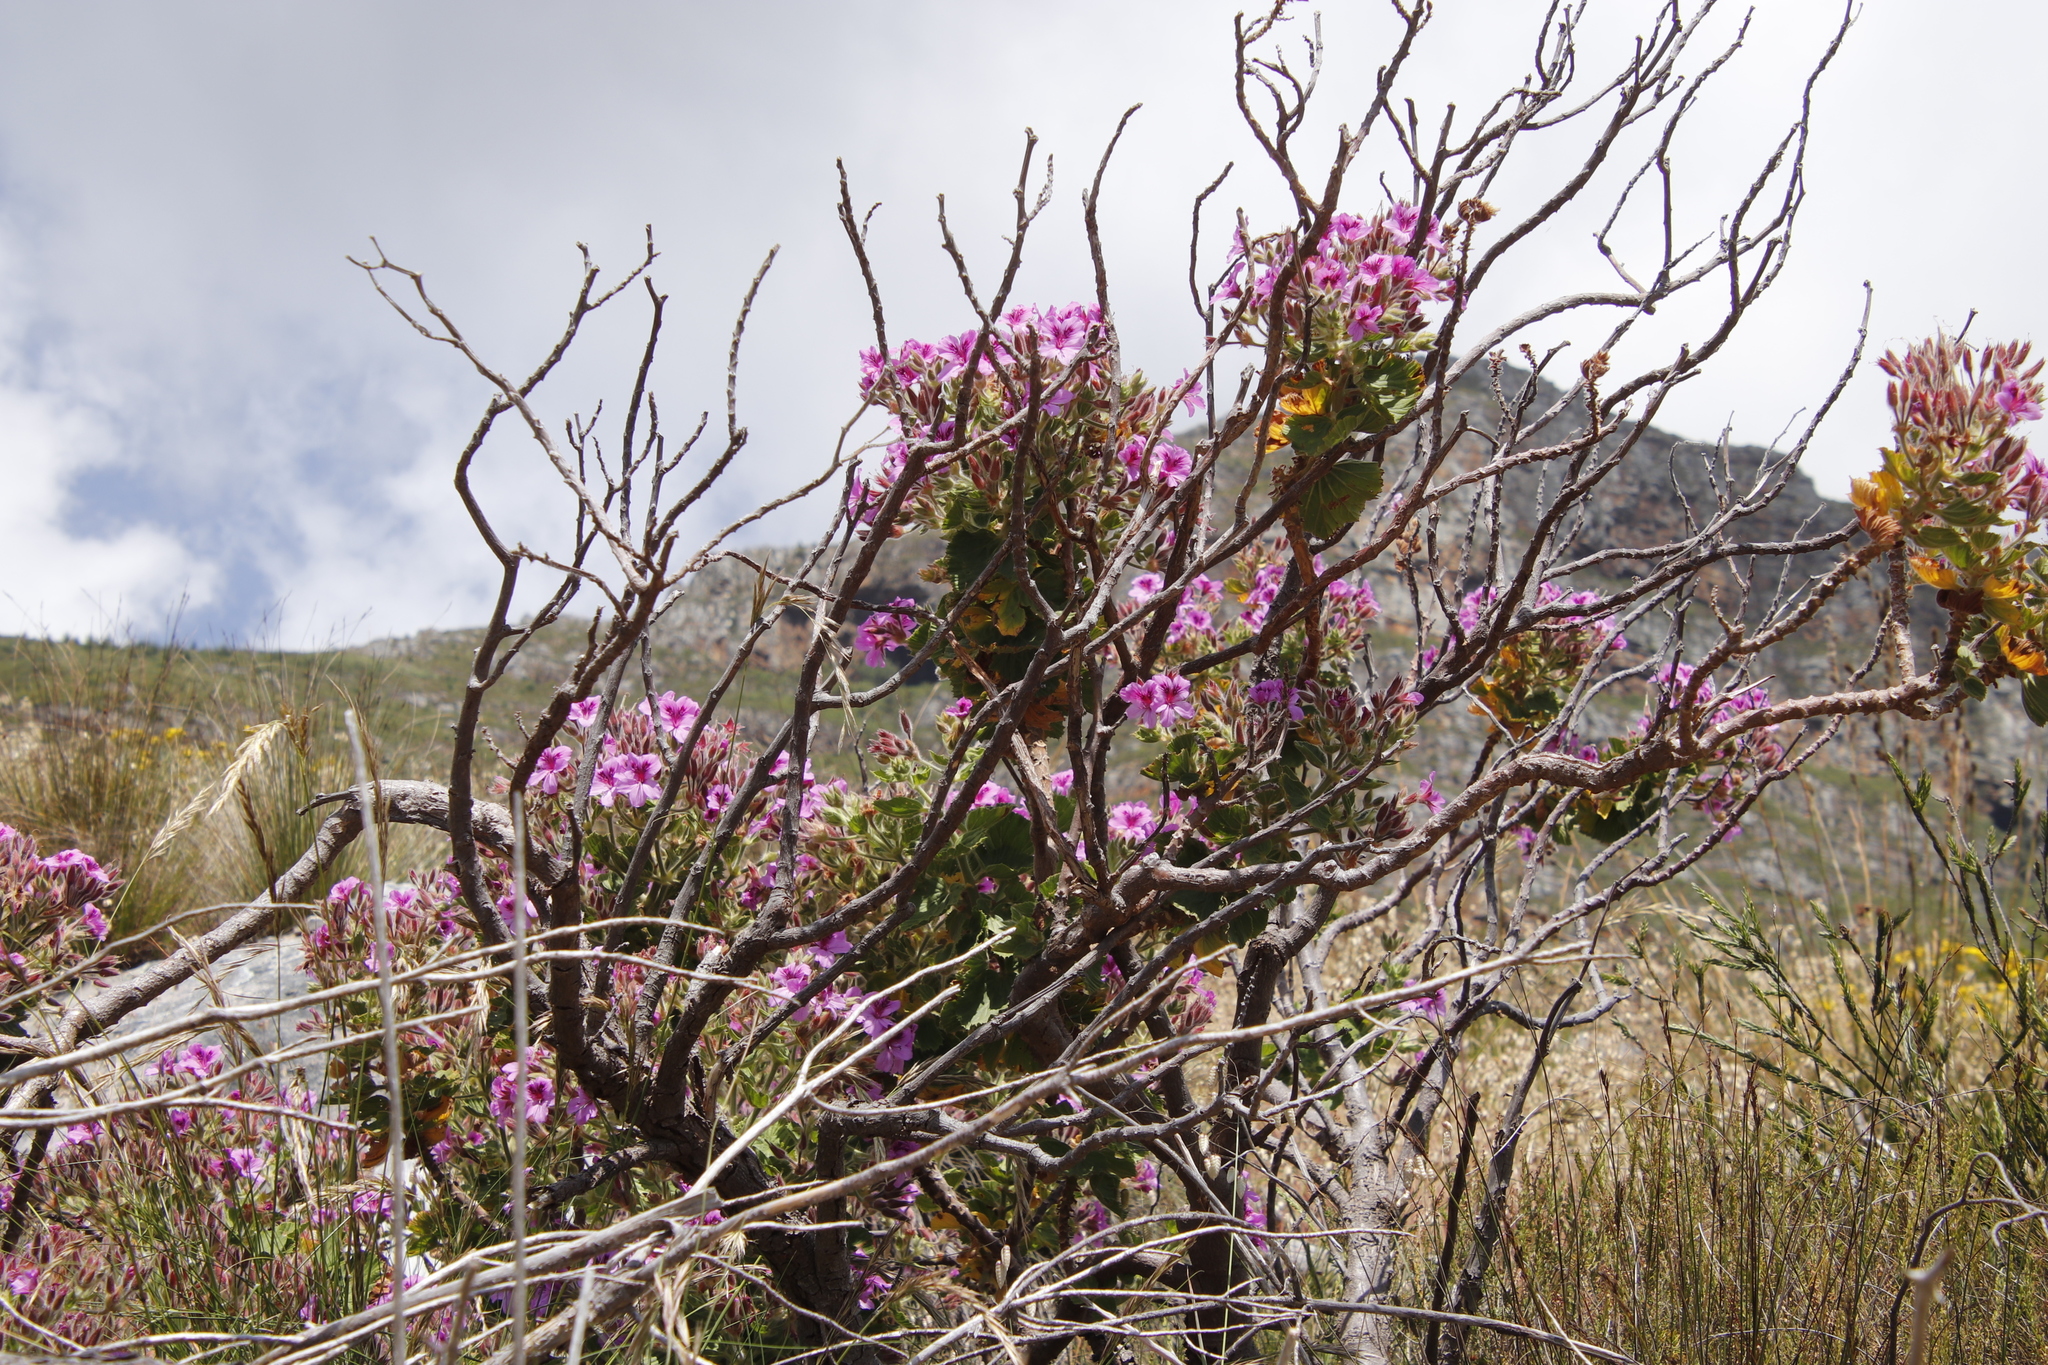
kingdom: Plantae
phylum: Tracheophyta
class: Magnoliopsida
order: Geraniales
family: Geraniaceae
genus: Pelargonium
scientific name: Pelargonium cucullatum
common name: Tree pelargonium
